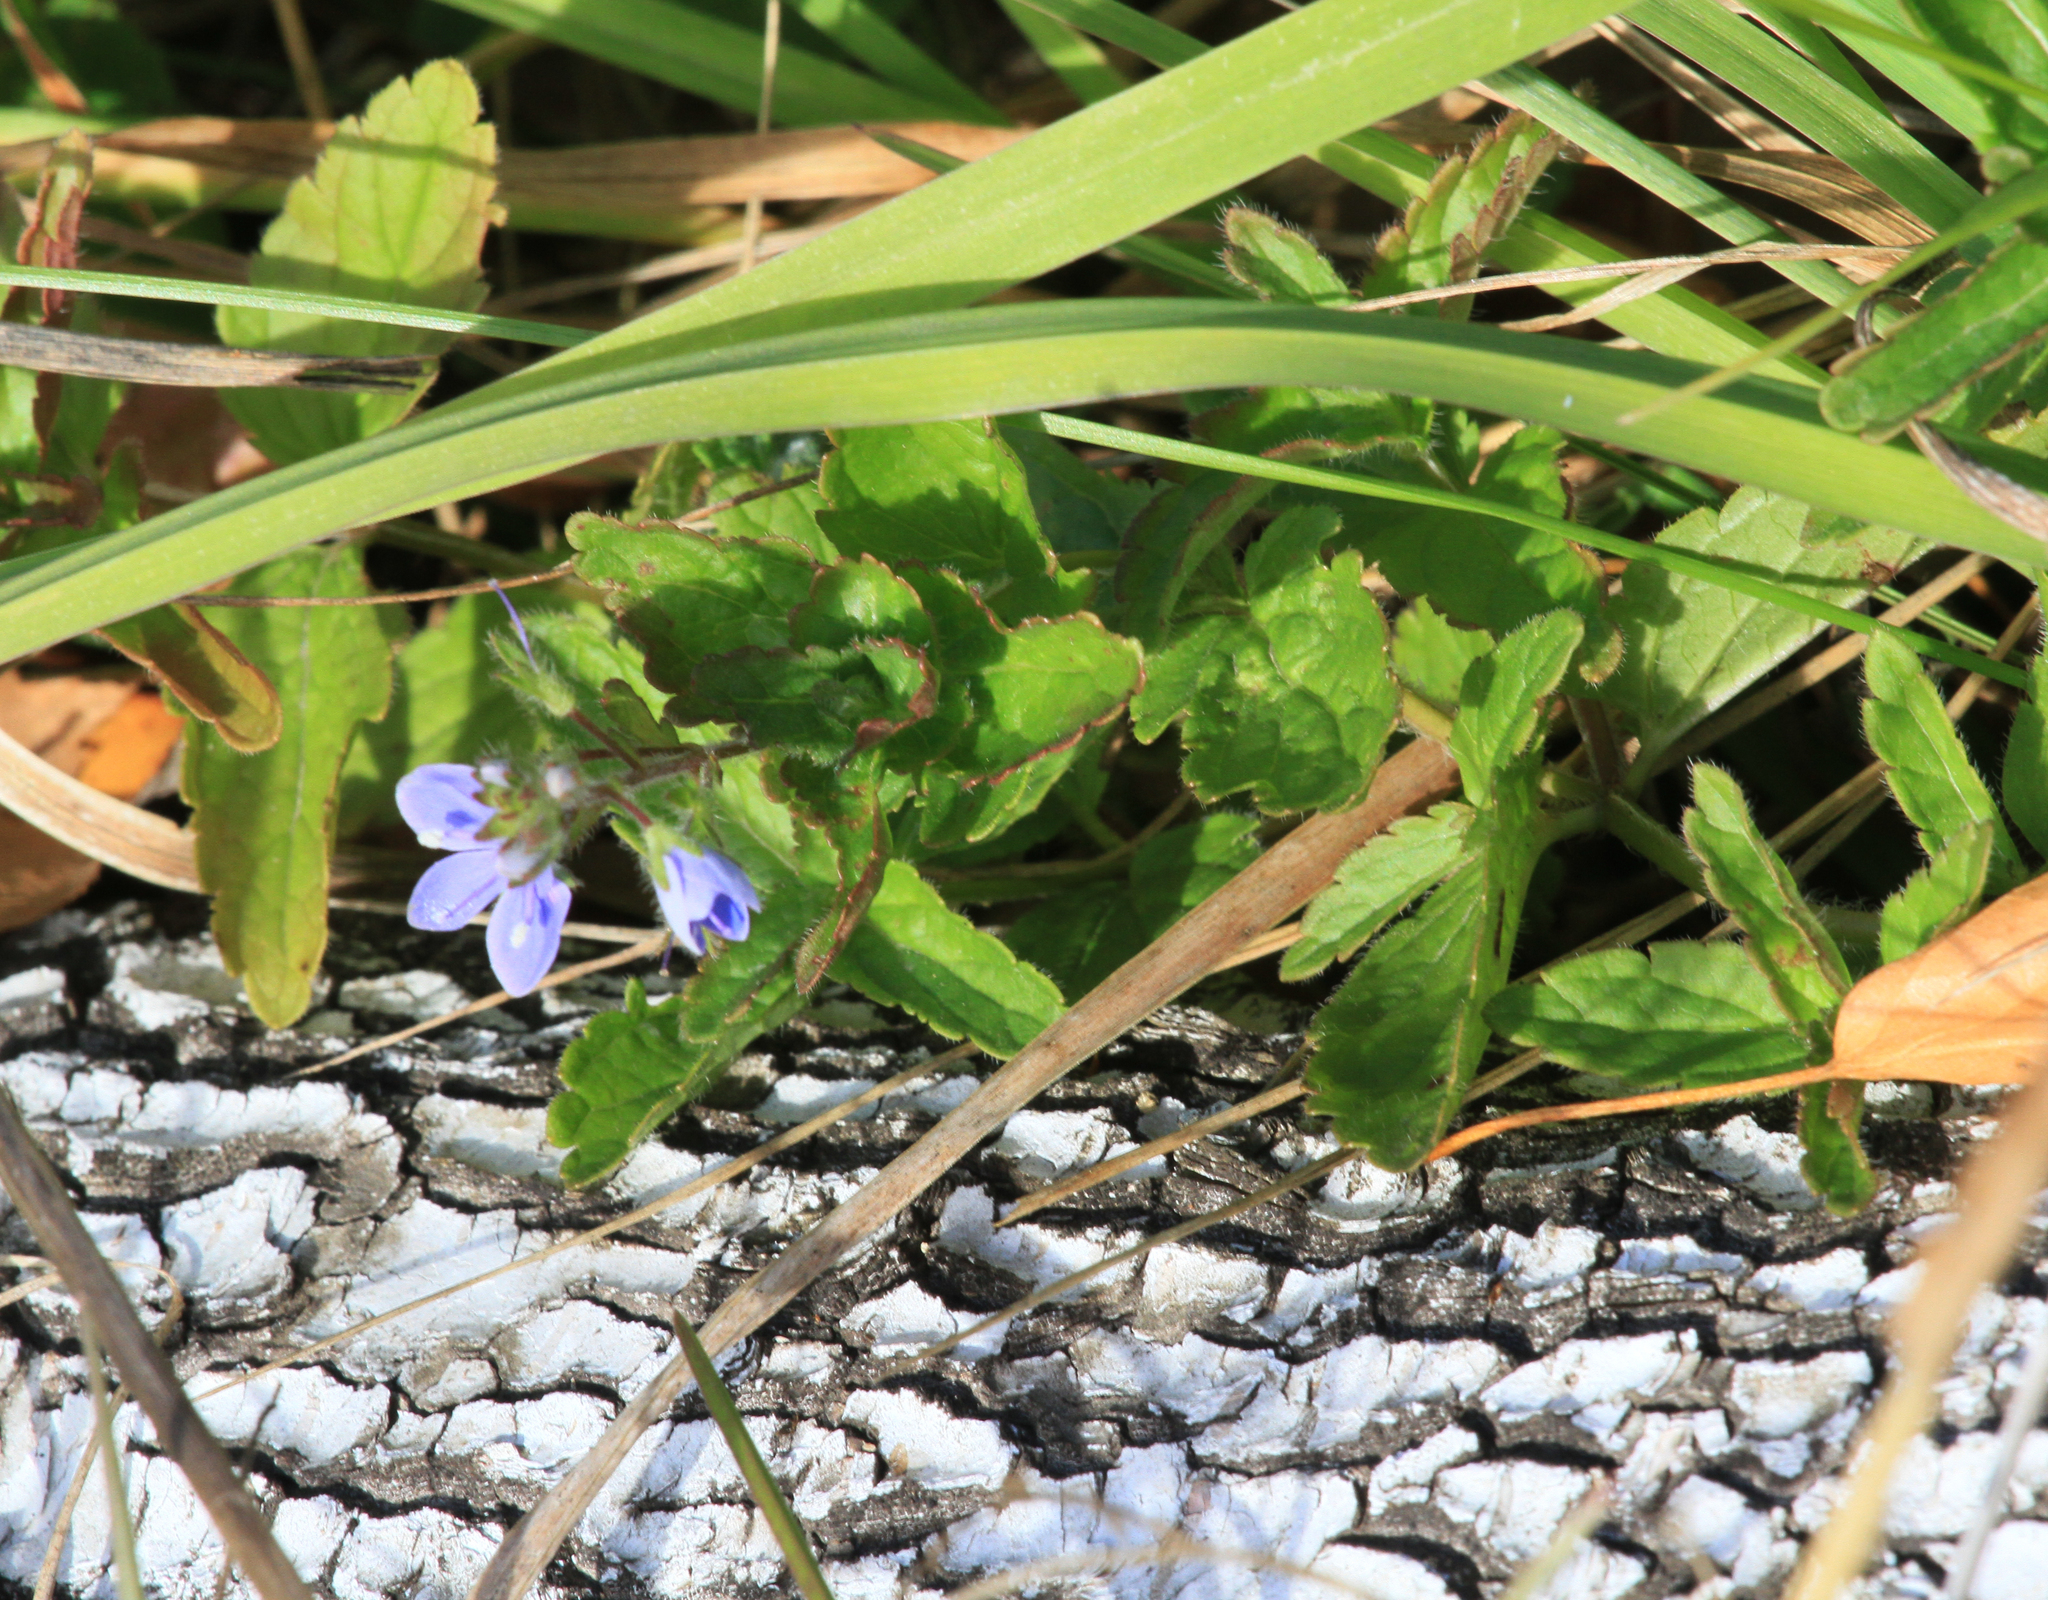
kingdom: Plantae
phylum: Tracheophyta
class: Magnoliopsida
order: Lamiales
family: Plantaginaceae
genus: Veronica
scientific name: Veronica chamaedrys
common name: Germander speedwell
